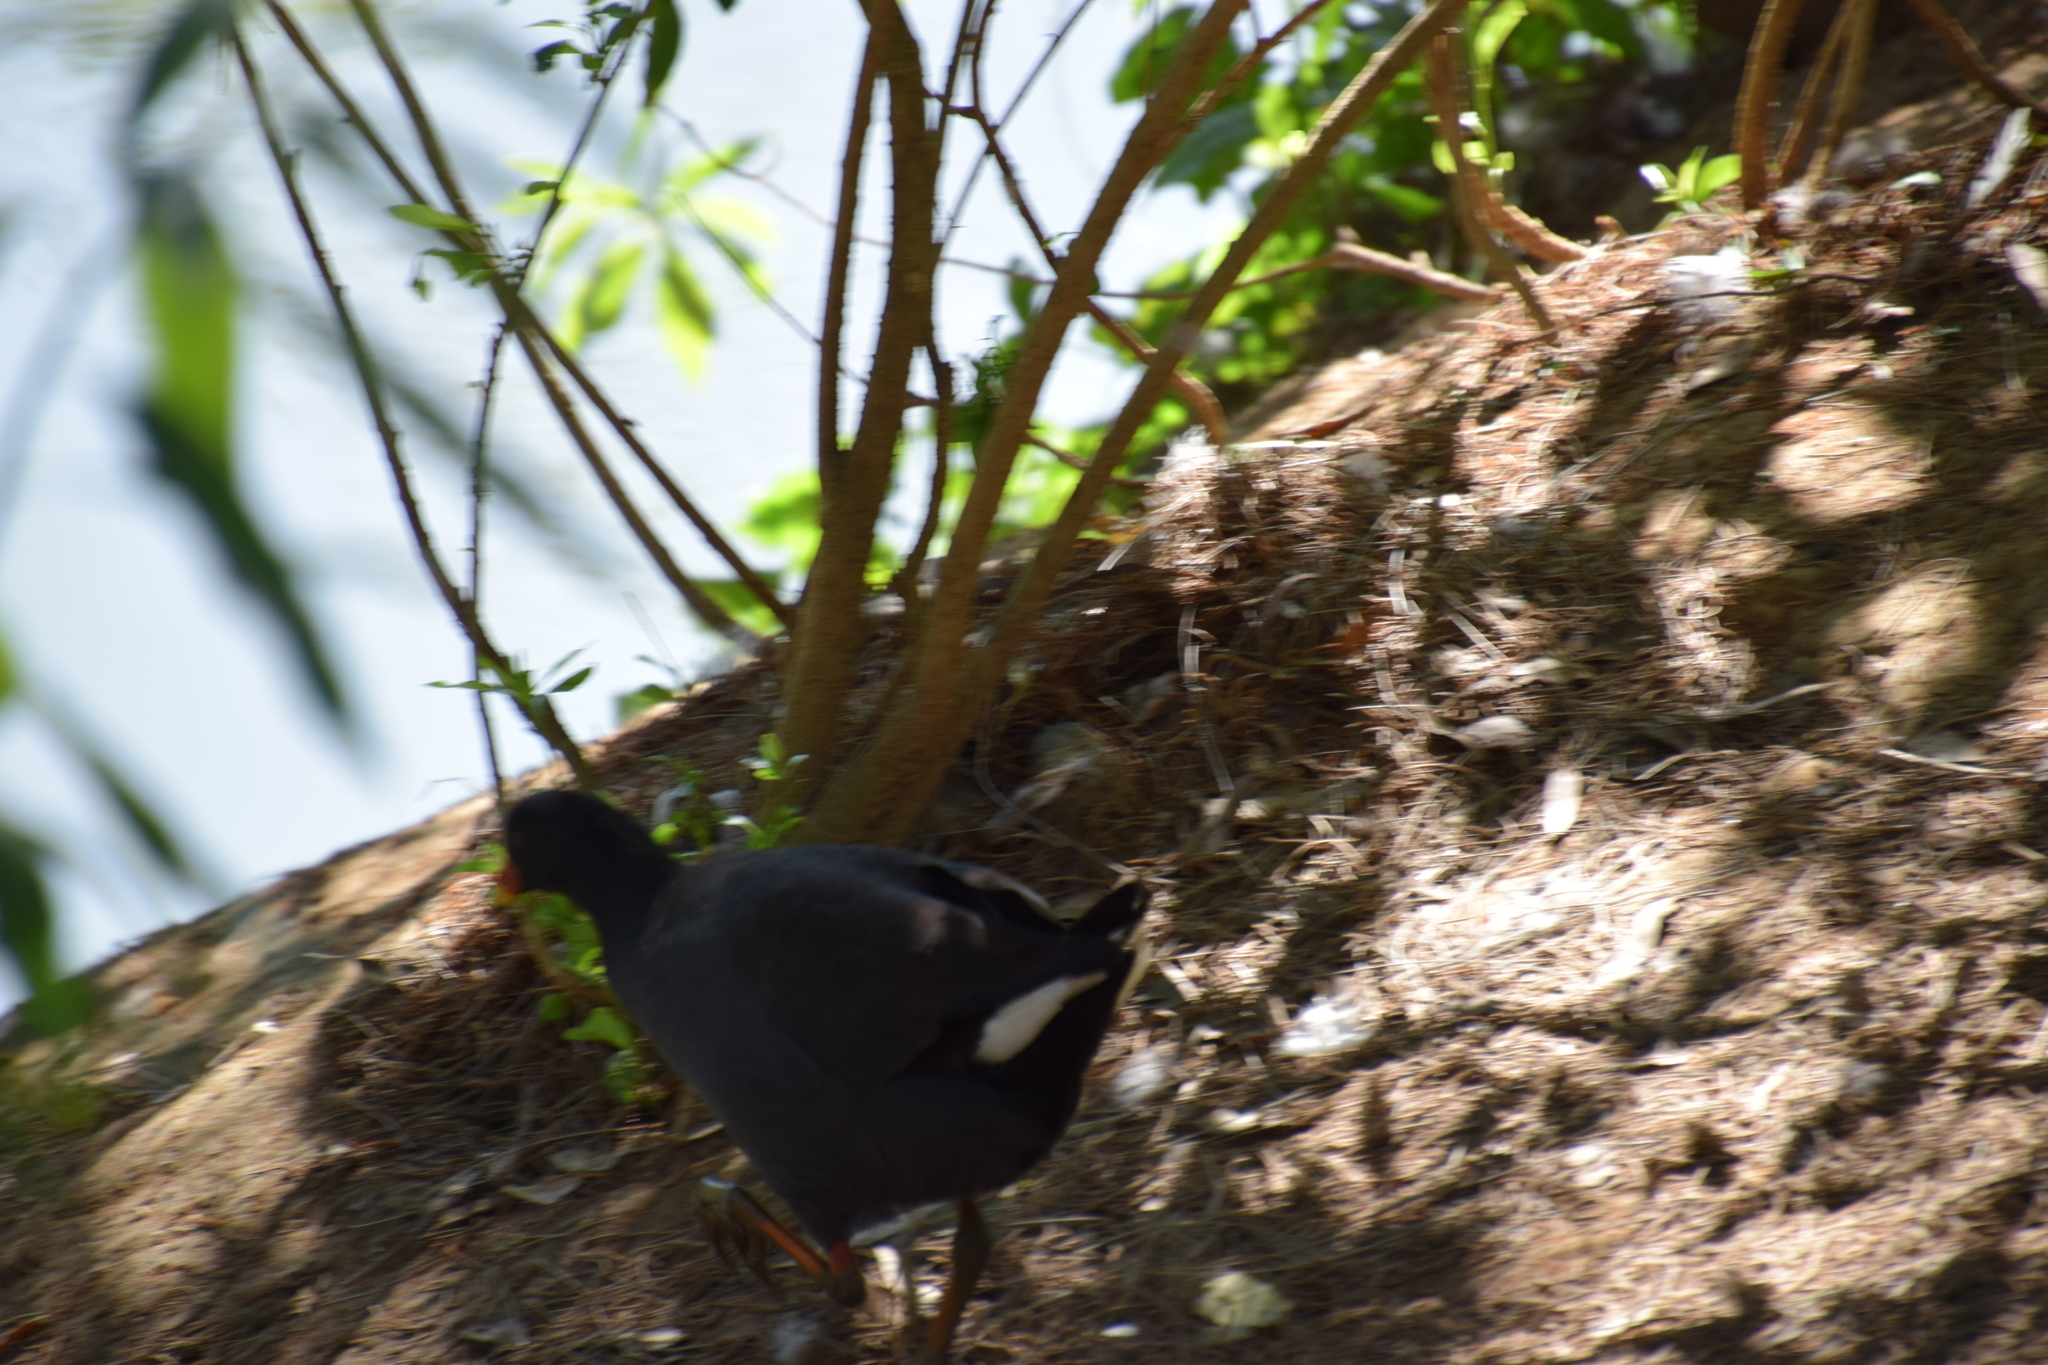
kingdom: Animalia
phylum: Chordata
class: Aves
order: Gruiformes
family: Rallidae
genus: Gallinula
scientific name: Gallinula tenebrosa
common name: Dusky moorhen
